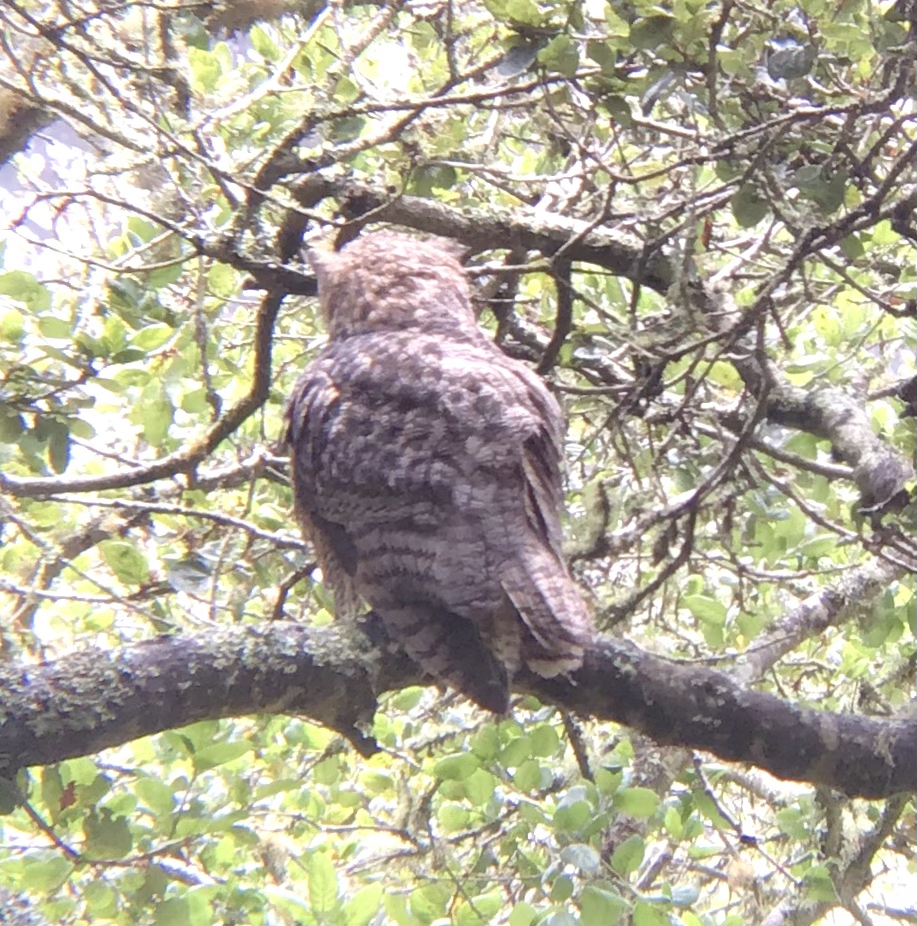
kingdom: Animalia
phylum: Chordata
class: Aves
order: Strigiformes
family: Strigidae
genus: Bubo
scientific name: Bubo virginianus
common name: Great horned owl
